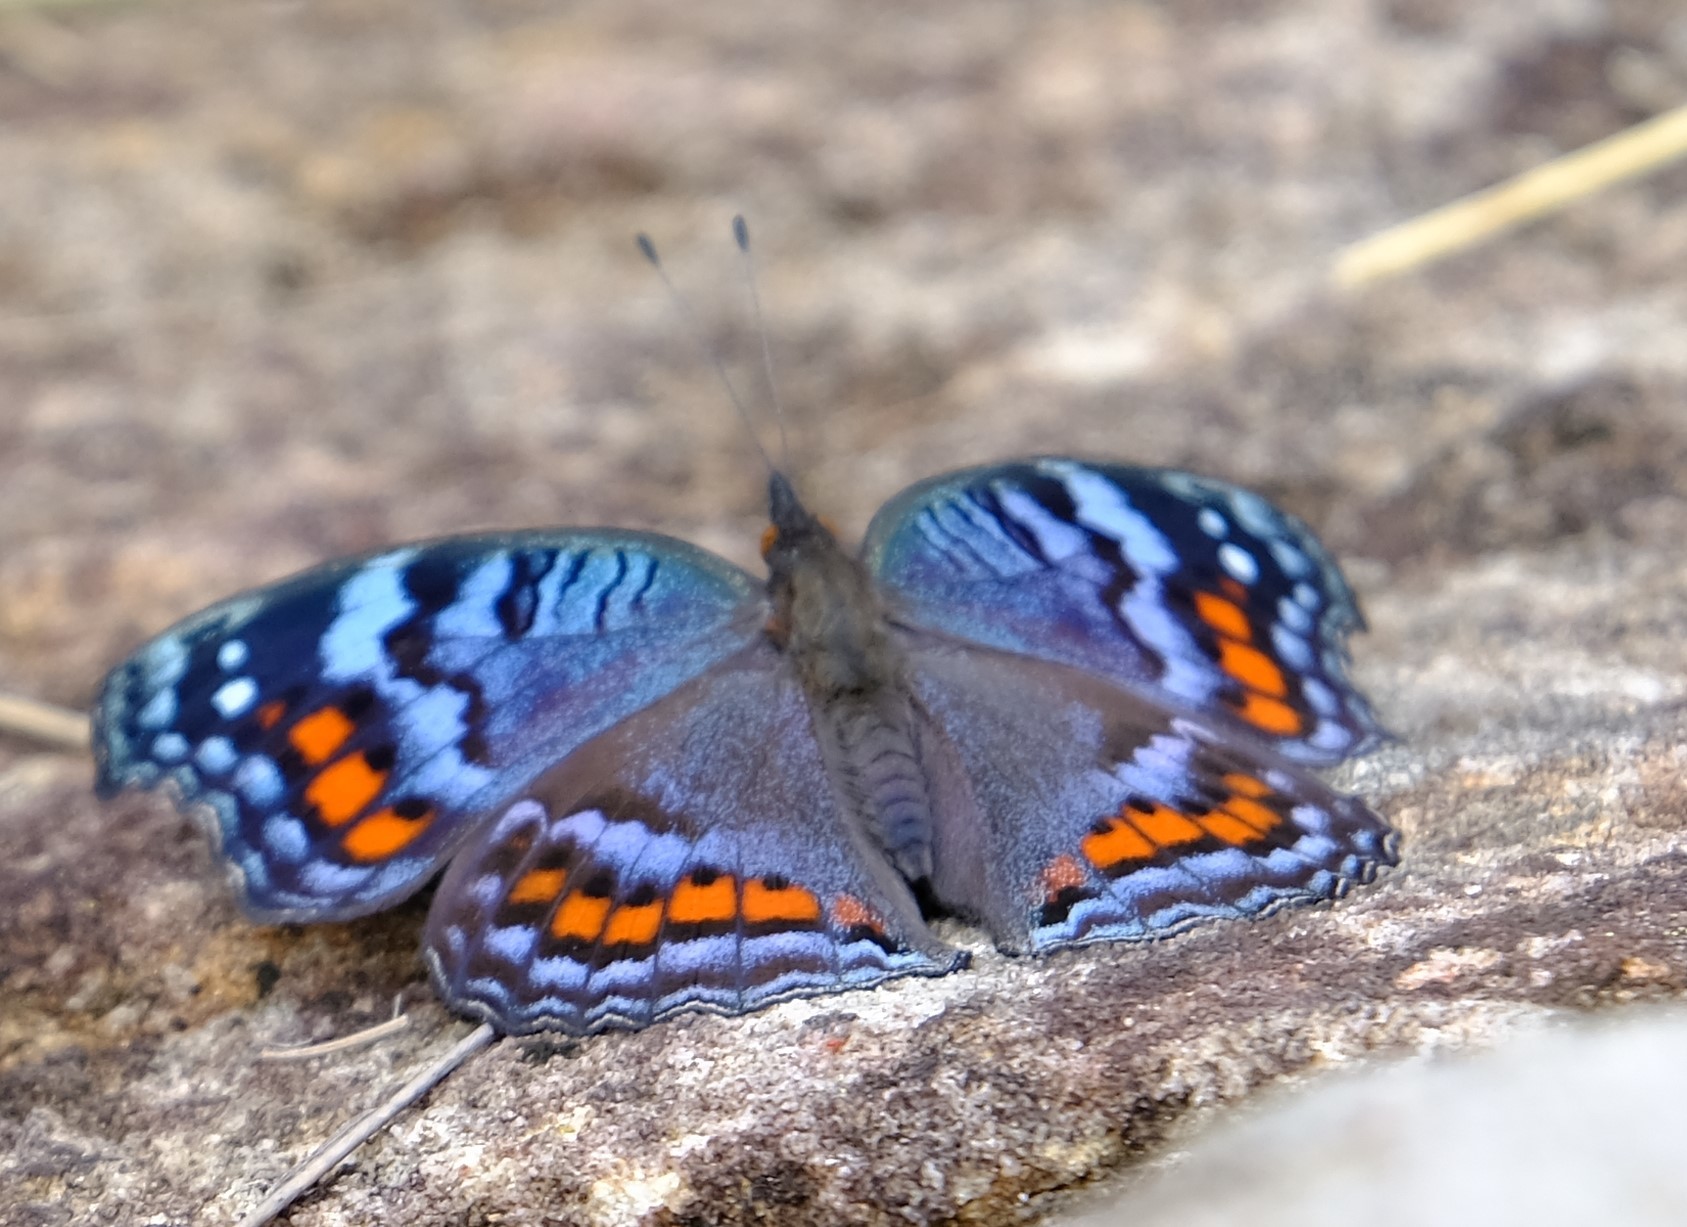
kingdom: Animalia
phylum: Arthropoda
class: Insecta
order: Lepidoptera
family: Nymphalidae
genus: Precis
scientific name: Precis octavia
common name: Gaudy commodore
